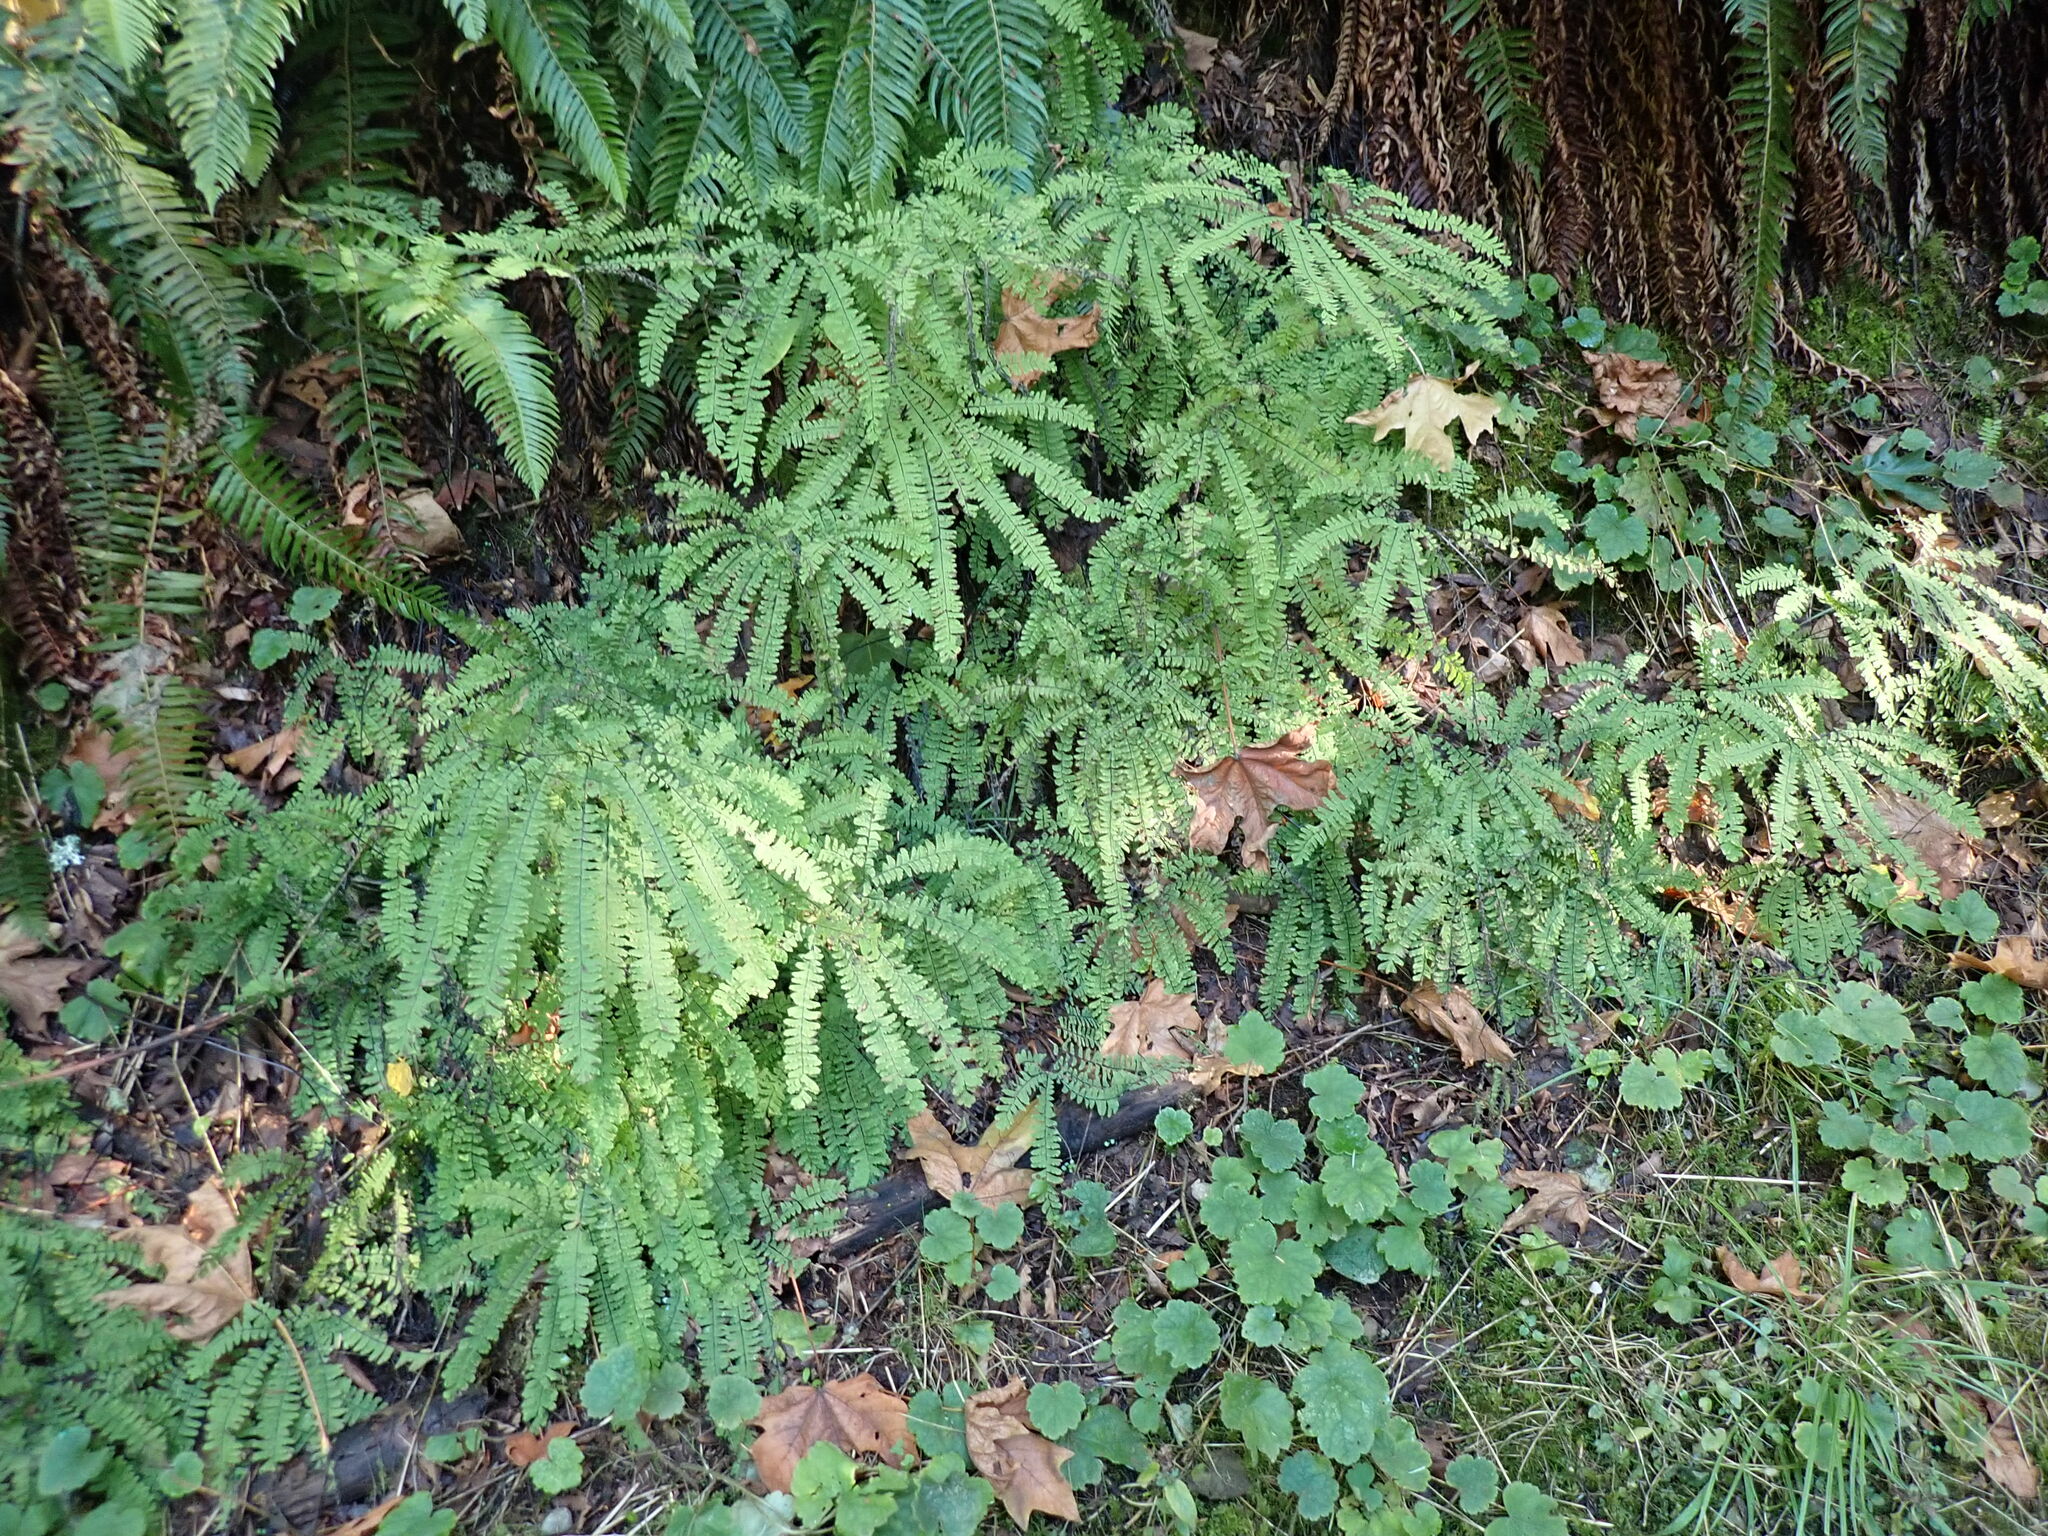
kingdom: Plantae
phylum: Tracheophyta
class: Polypodiopsida
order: Polypodiales
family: Pteridaceae
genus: Adiantum
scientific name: Adiantum aleuticum
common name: Aleutian maidenhair fern
